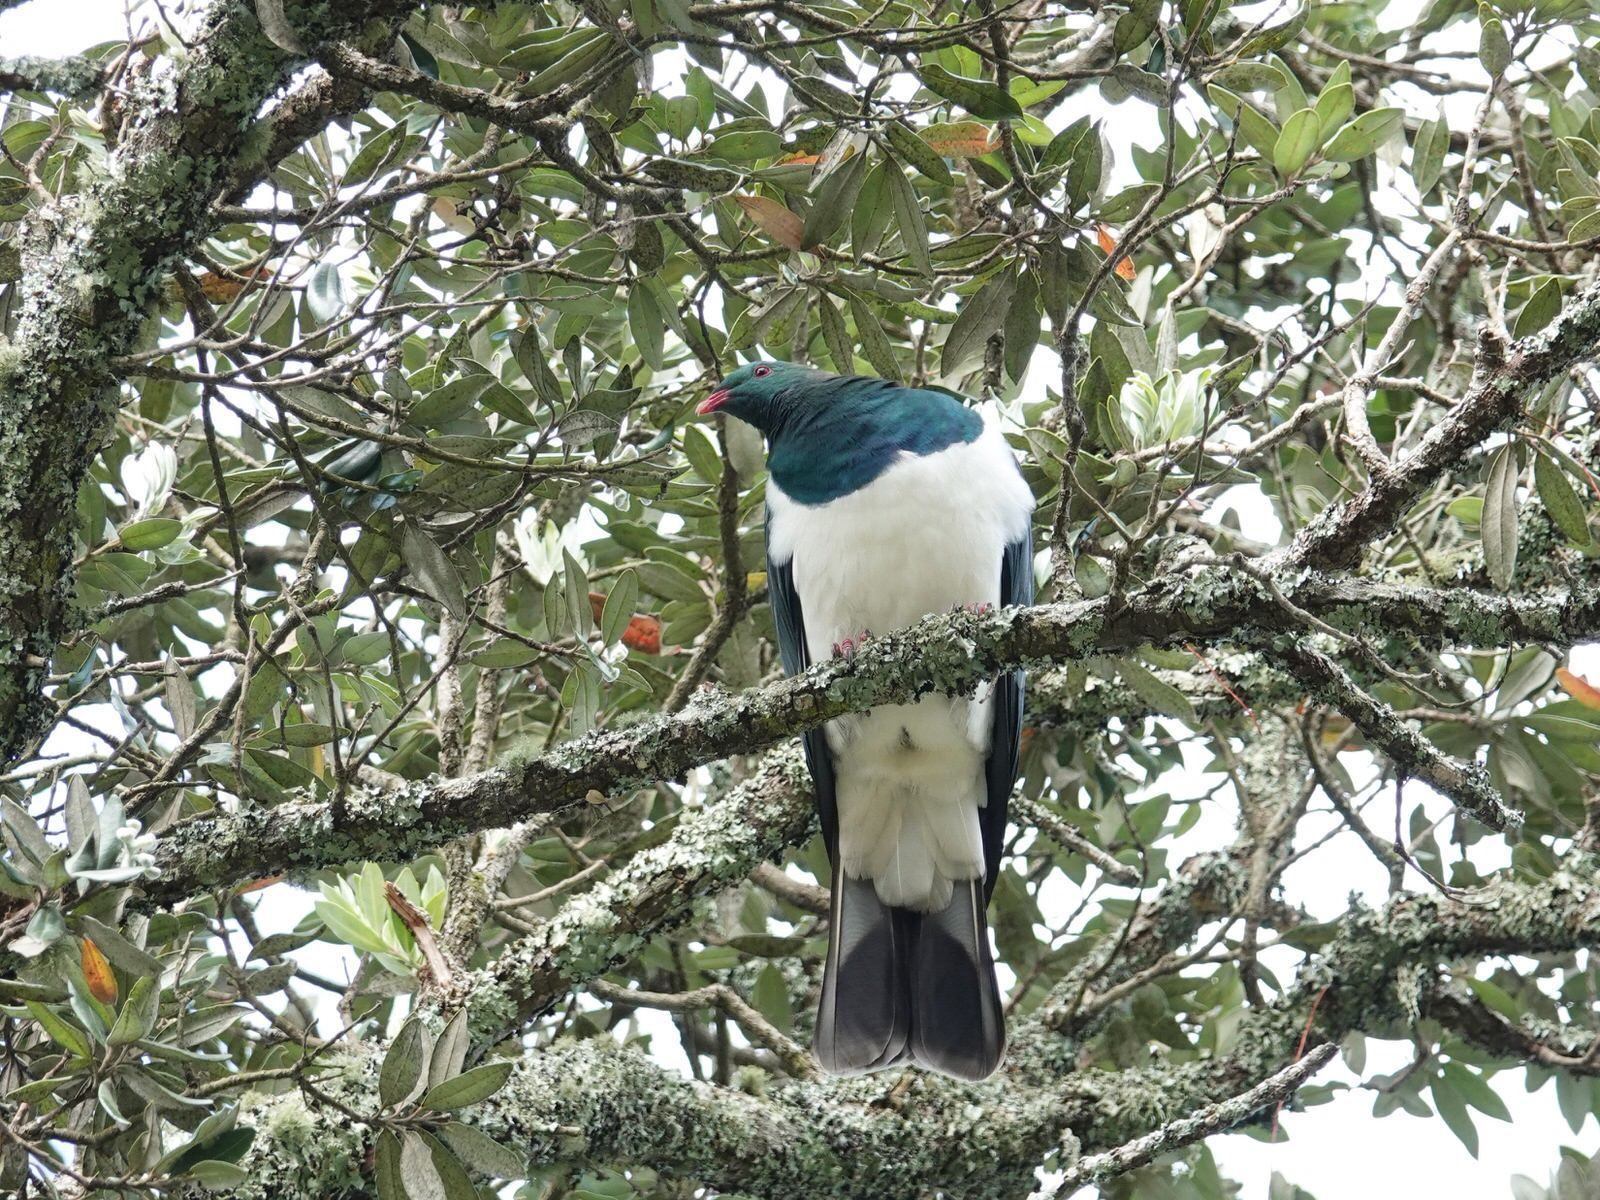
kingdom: Animalia
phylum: Chordata
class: Aves
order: Columbiformes
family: Columbidae
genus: Hemiphaga
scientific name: Hemiphaga novaeseelandiae
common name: New zealand pigeon
